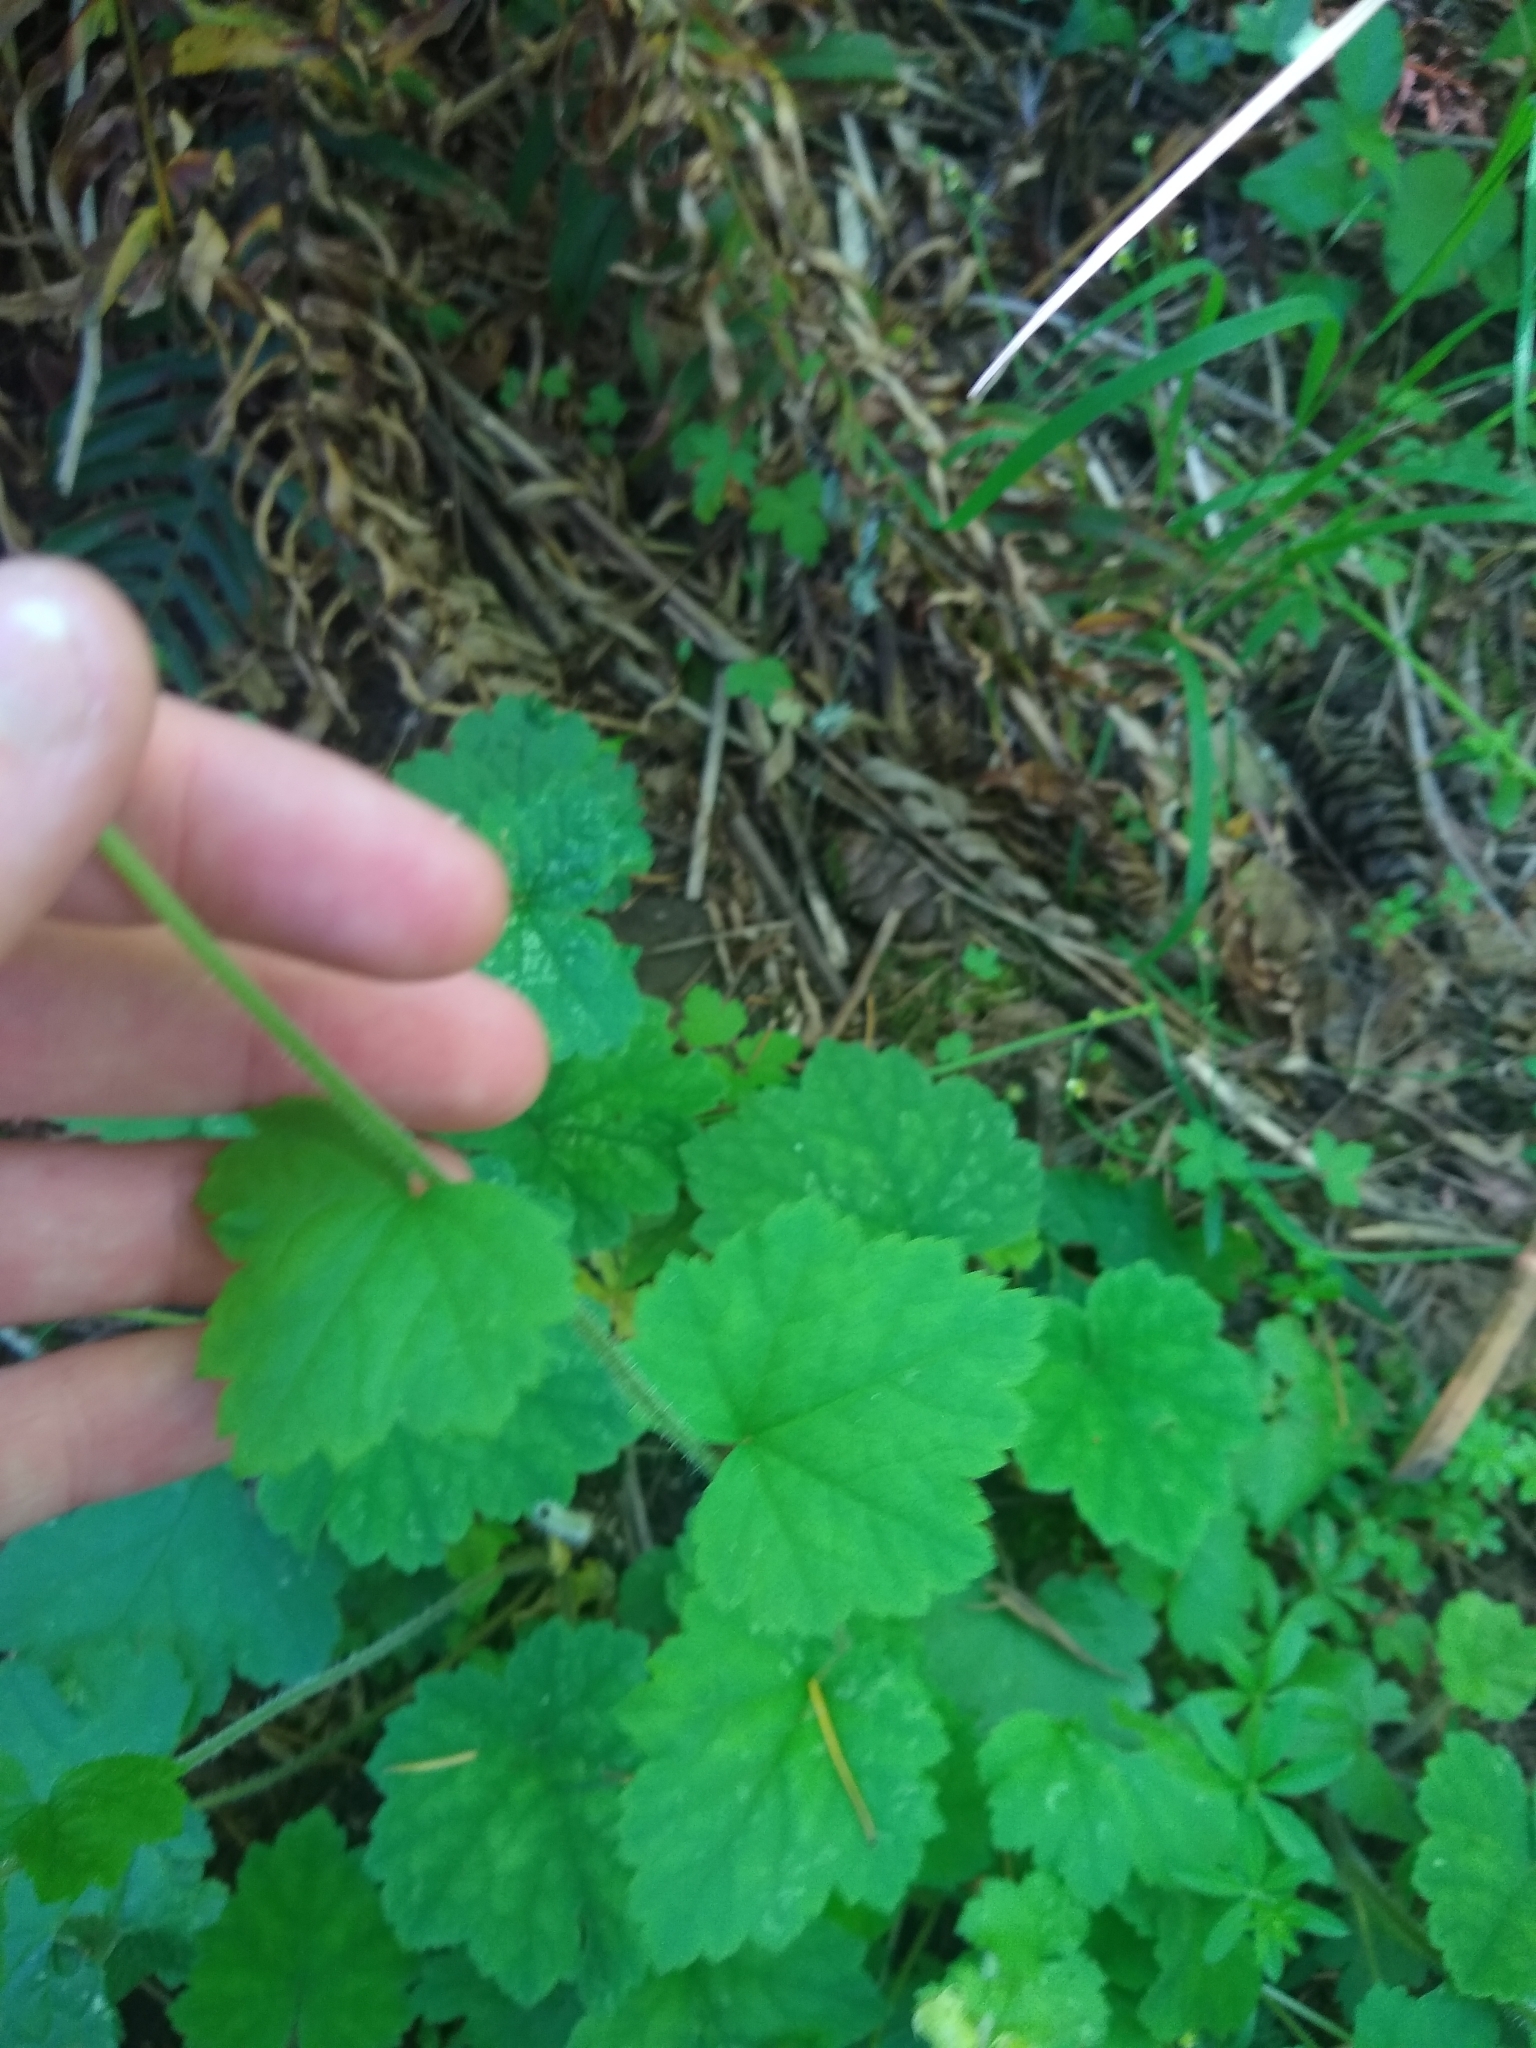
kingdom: Plantae
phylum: Tracheophyta
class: Magnoliopsida
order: Saxifragales
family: Saxifragaceae
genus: Tellima
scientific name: Tellima grandiflora
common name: Fringecups
